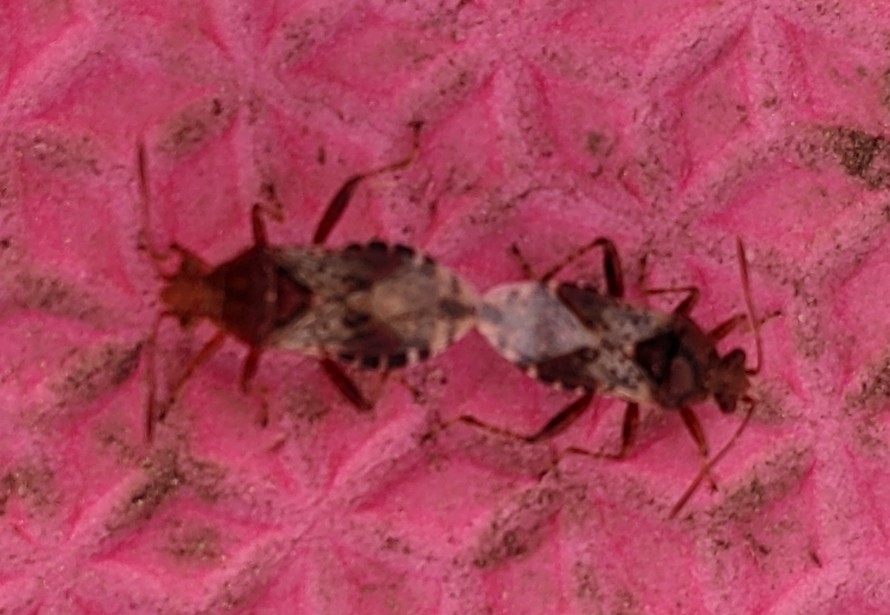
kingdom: Animalia
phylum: Arthropoda
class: Insecta
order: Hemiptera
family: Rhopalidae
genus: Rhopalus
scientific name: Rhopalus subrufus
